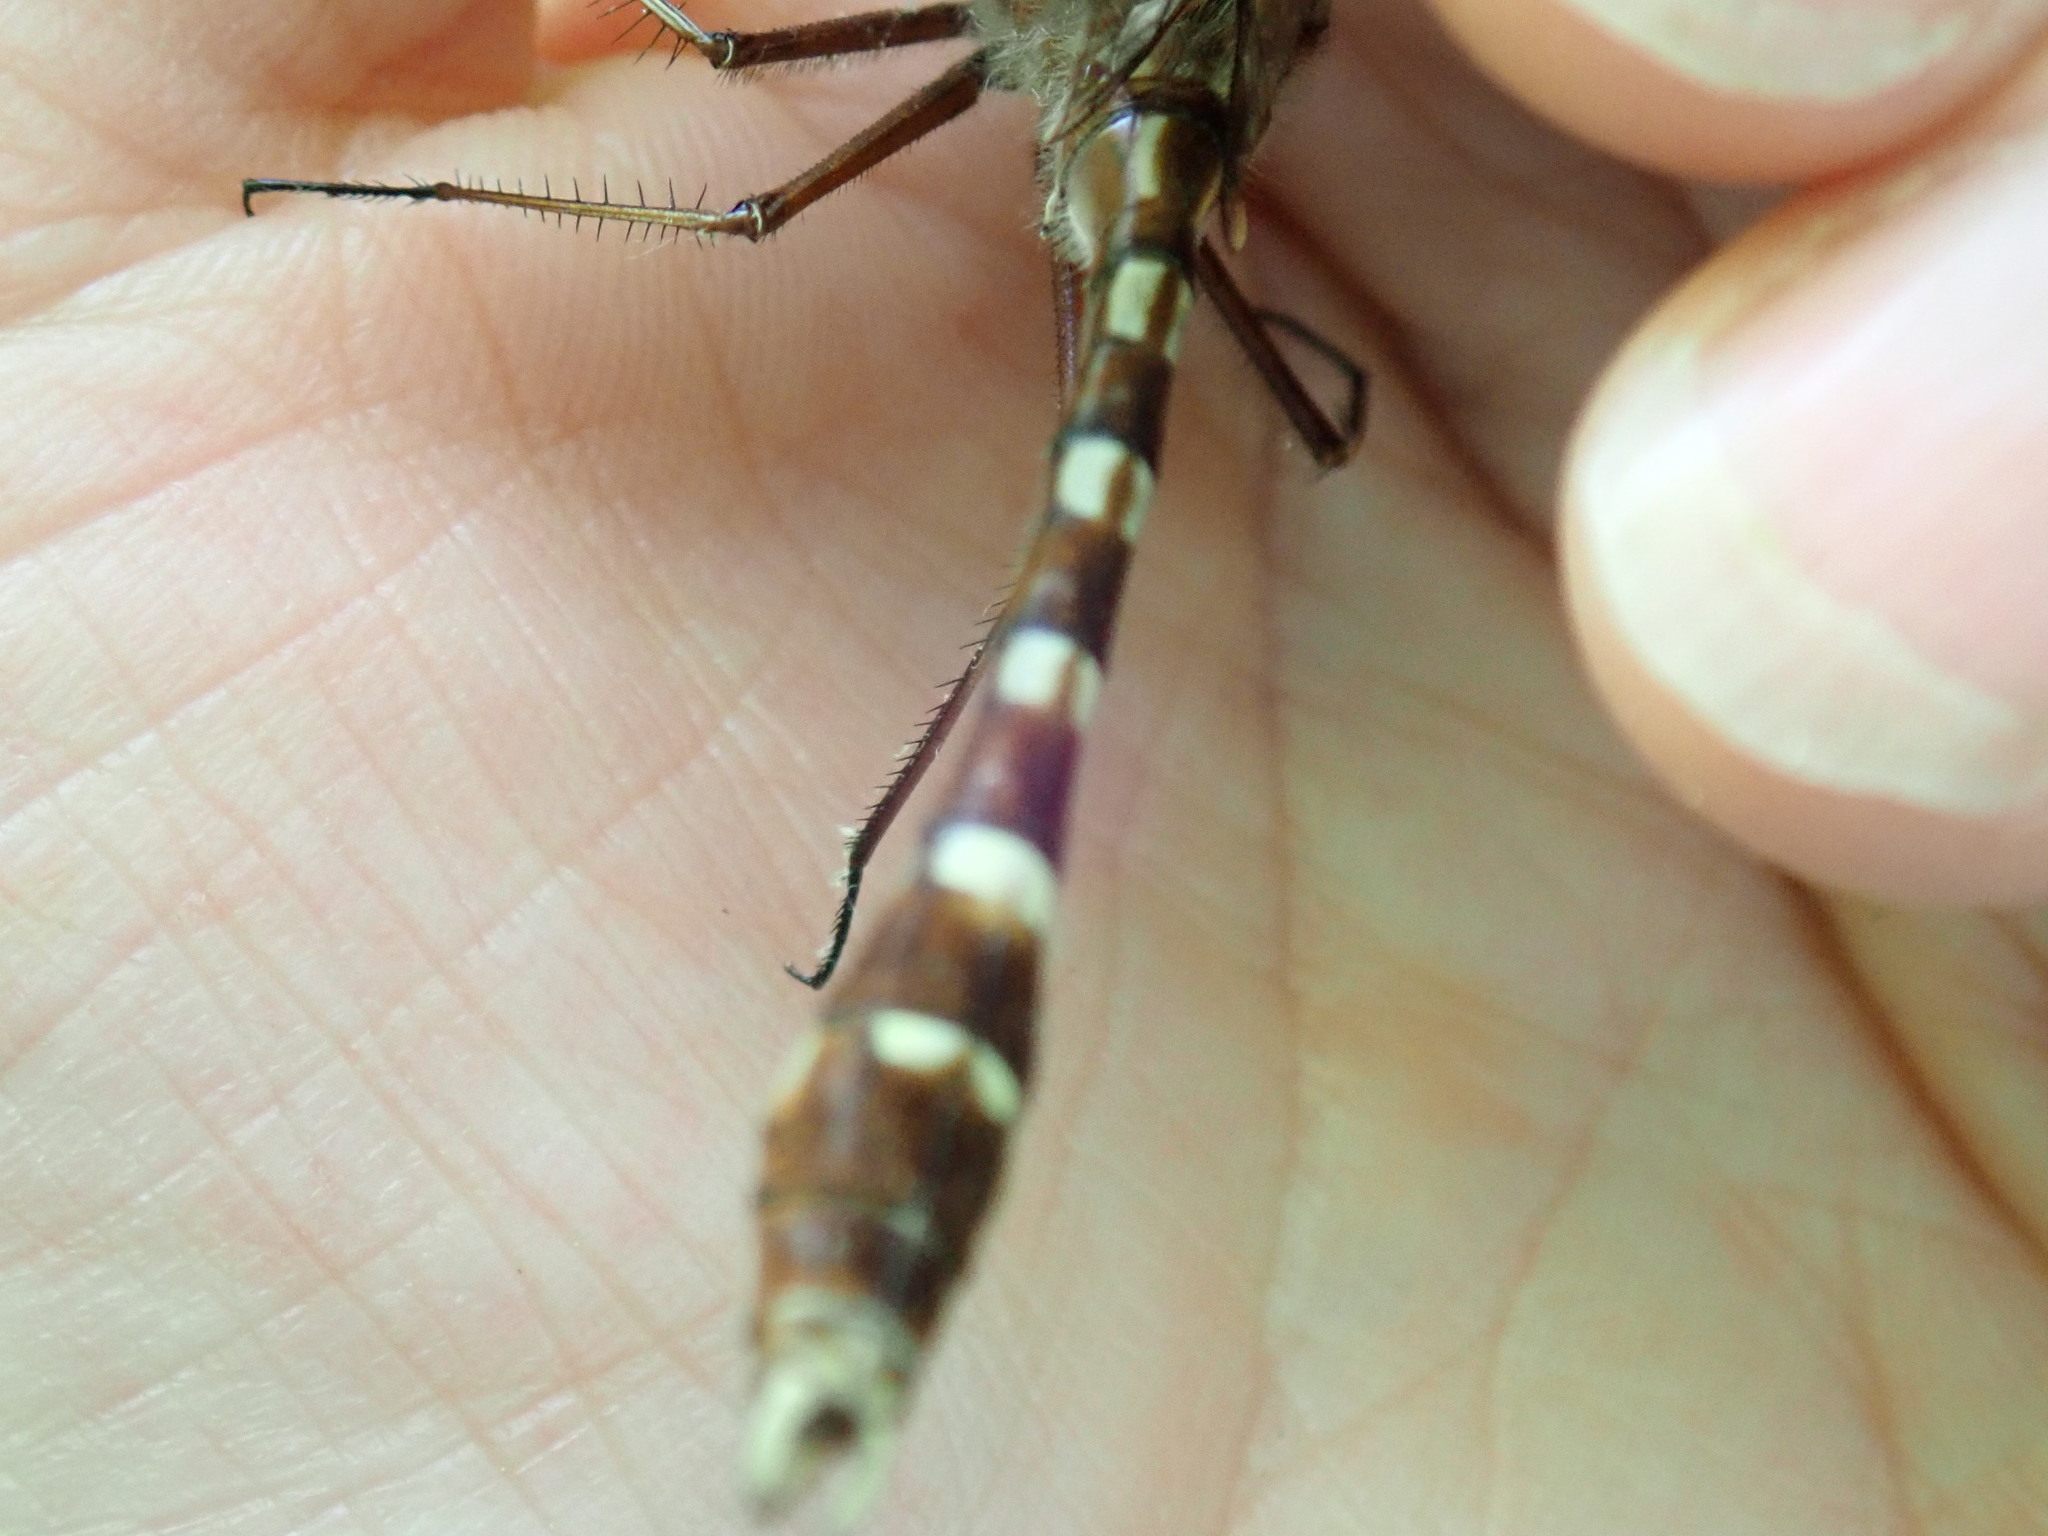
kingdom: Animalia
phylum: Arthropoda
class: Insecta
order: Odonata
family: Macromiidae
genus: Didymops
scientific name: Didymops transversa
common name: Stream cruiser
